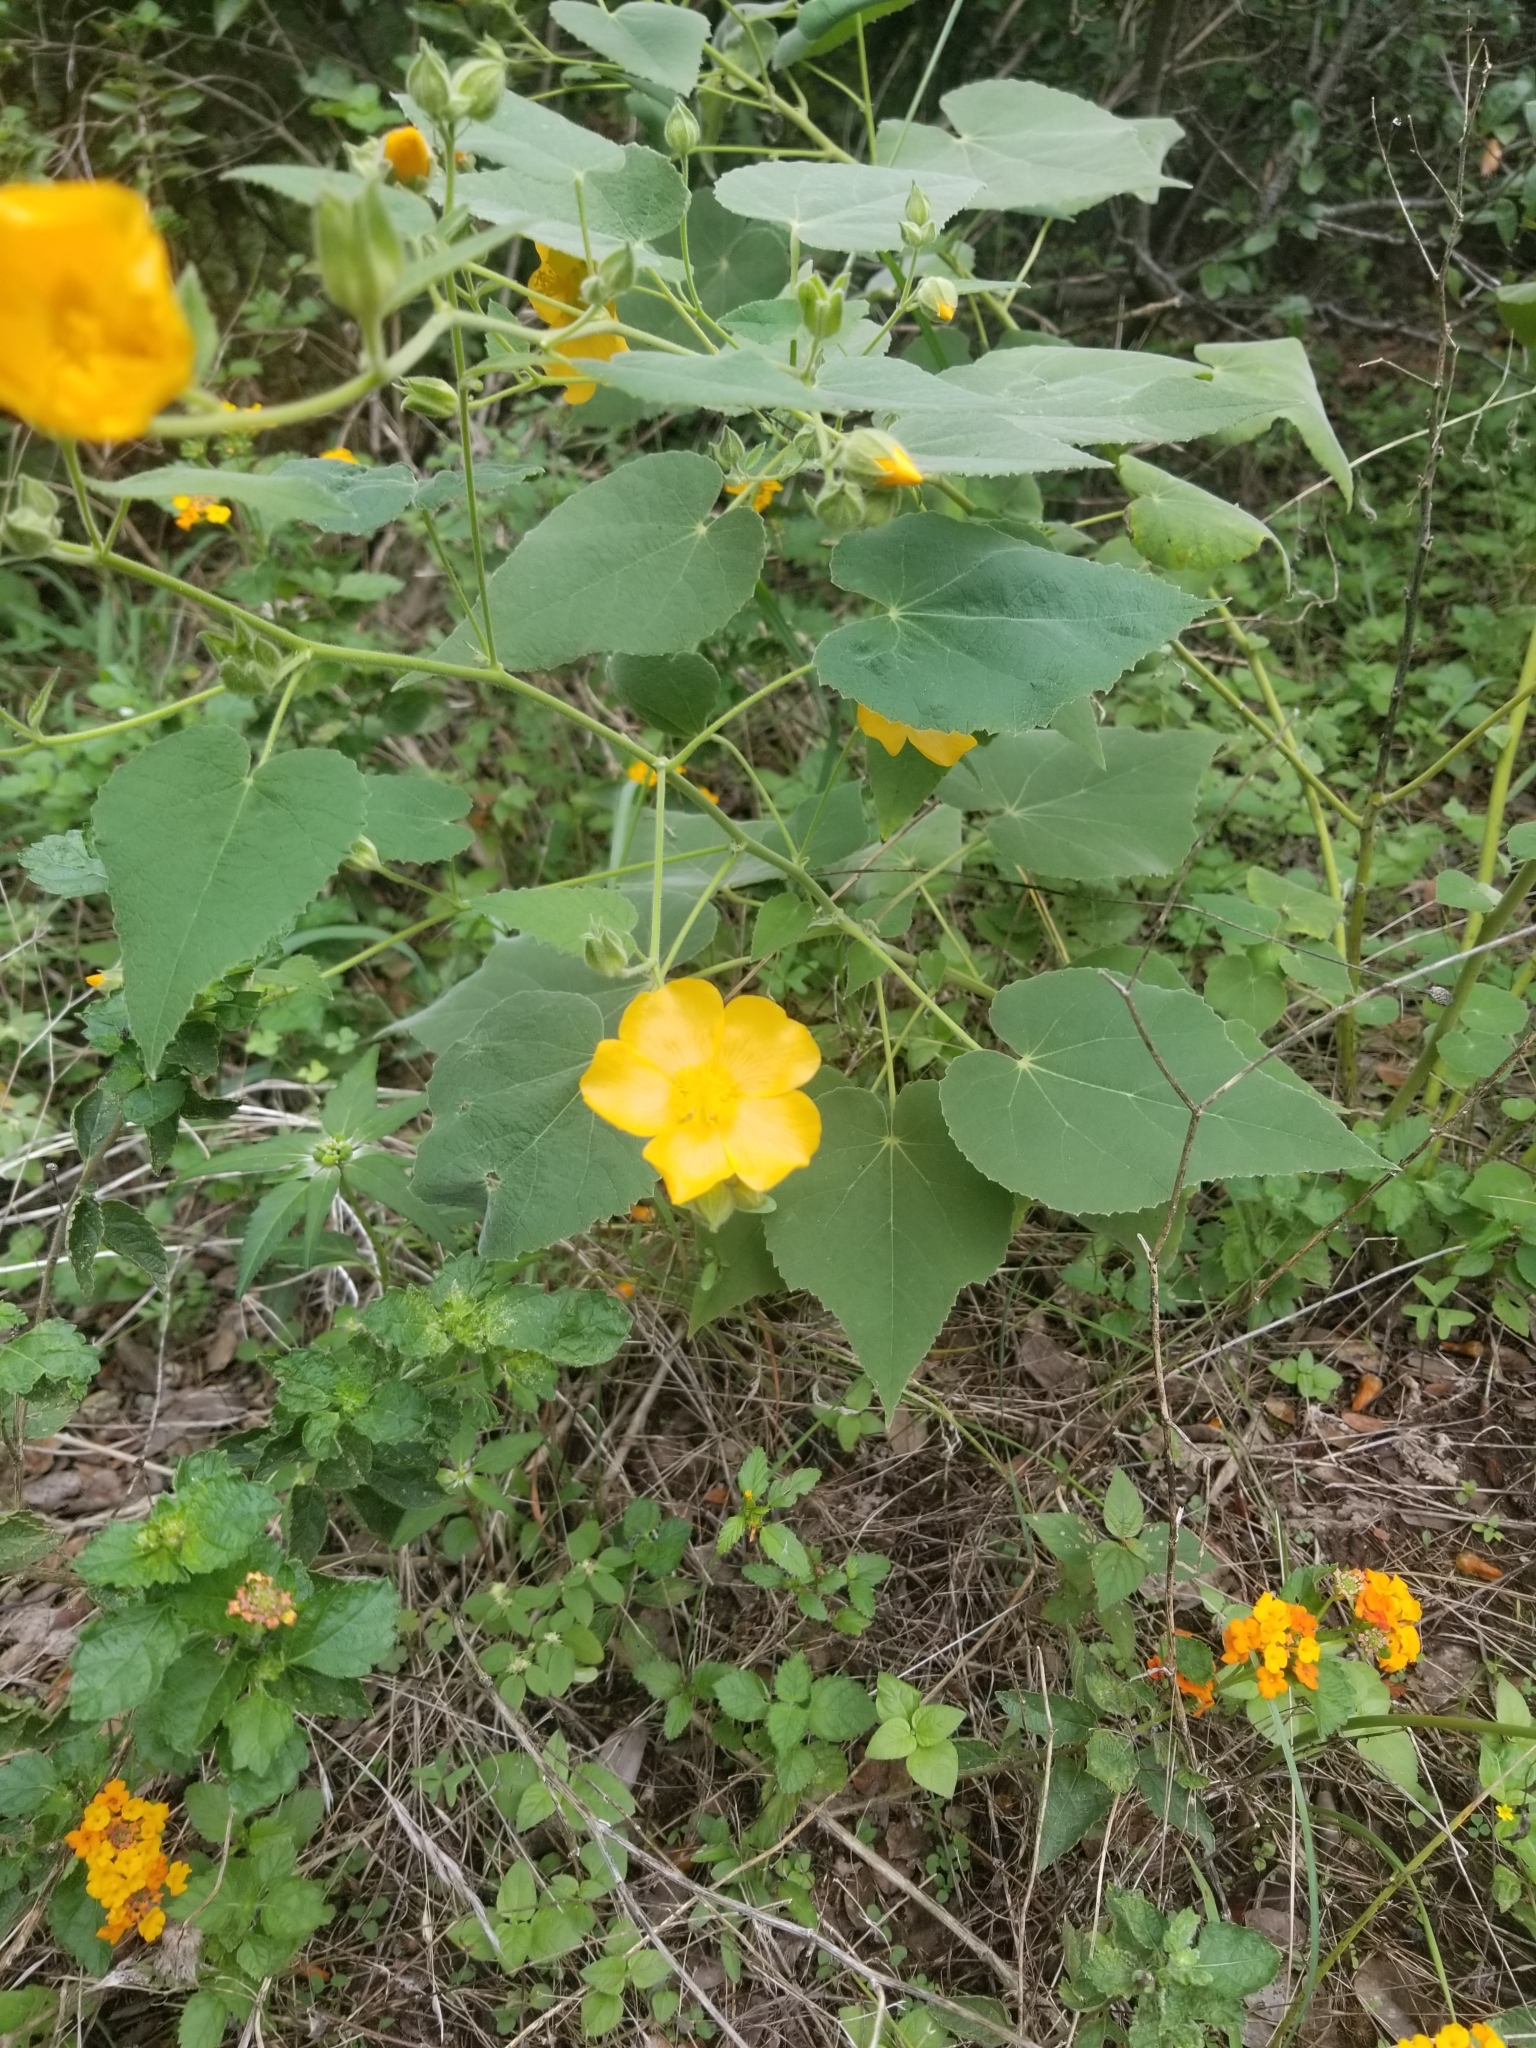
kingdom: Plantae
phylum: Tracheophyta
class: Magnoliopsida
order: Malvales
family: Malvaceae
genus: Allowissadula
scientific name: Allowissadula holosericea
